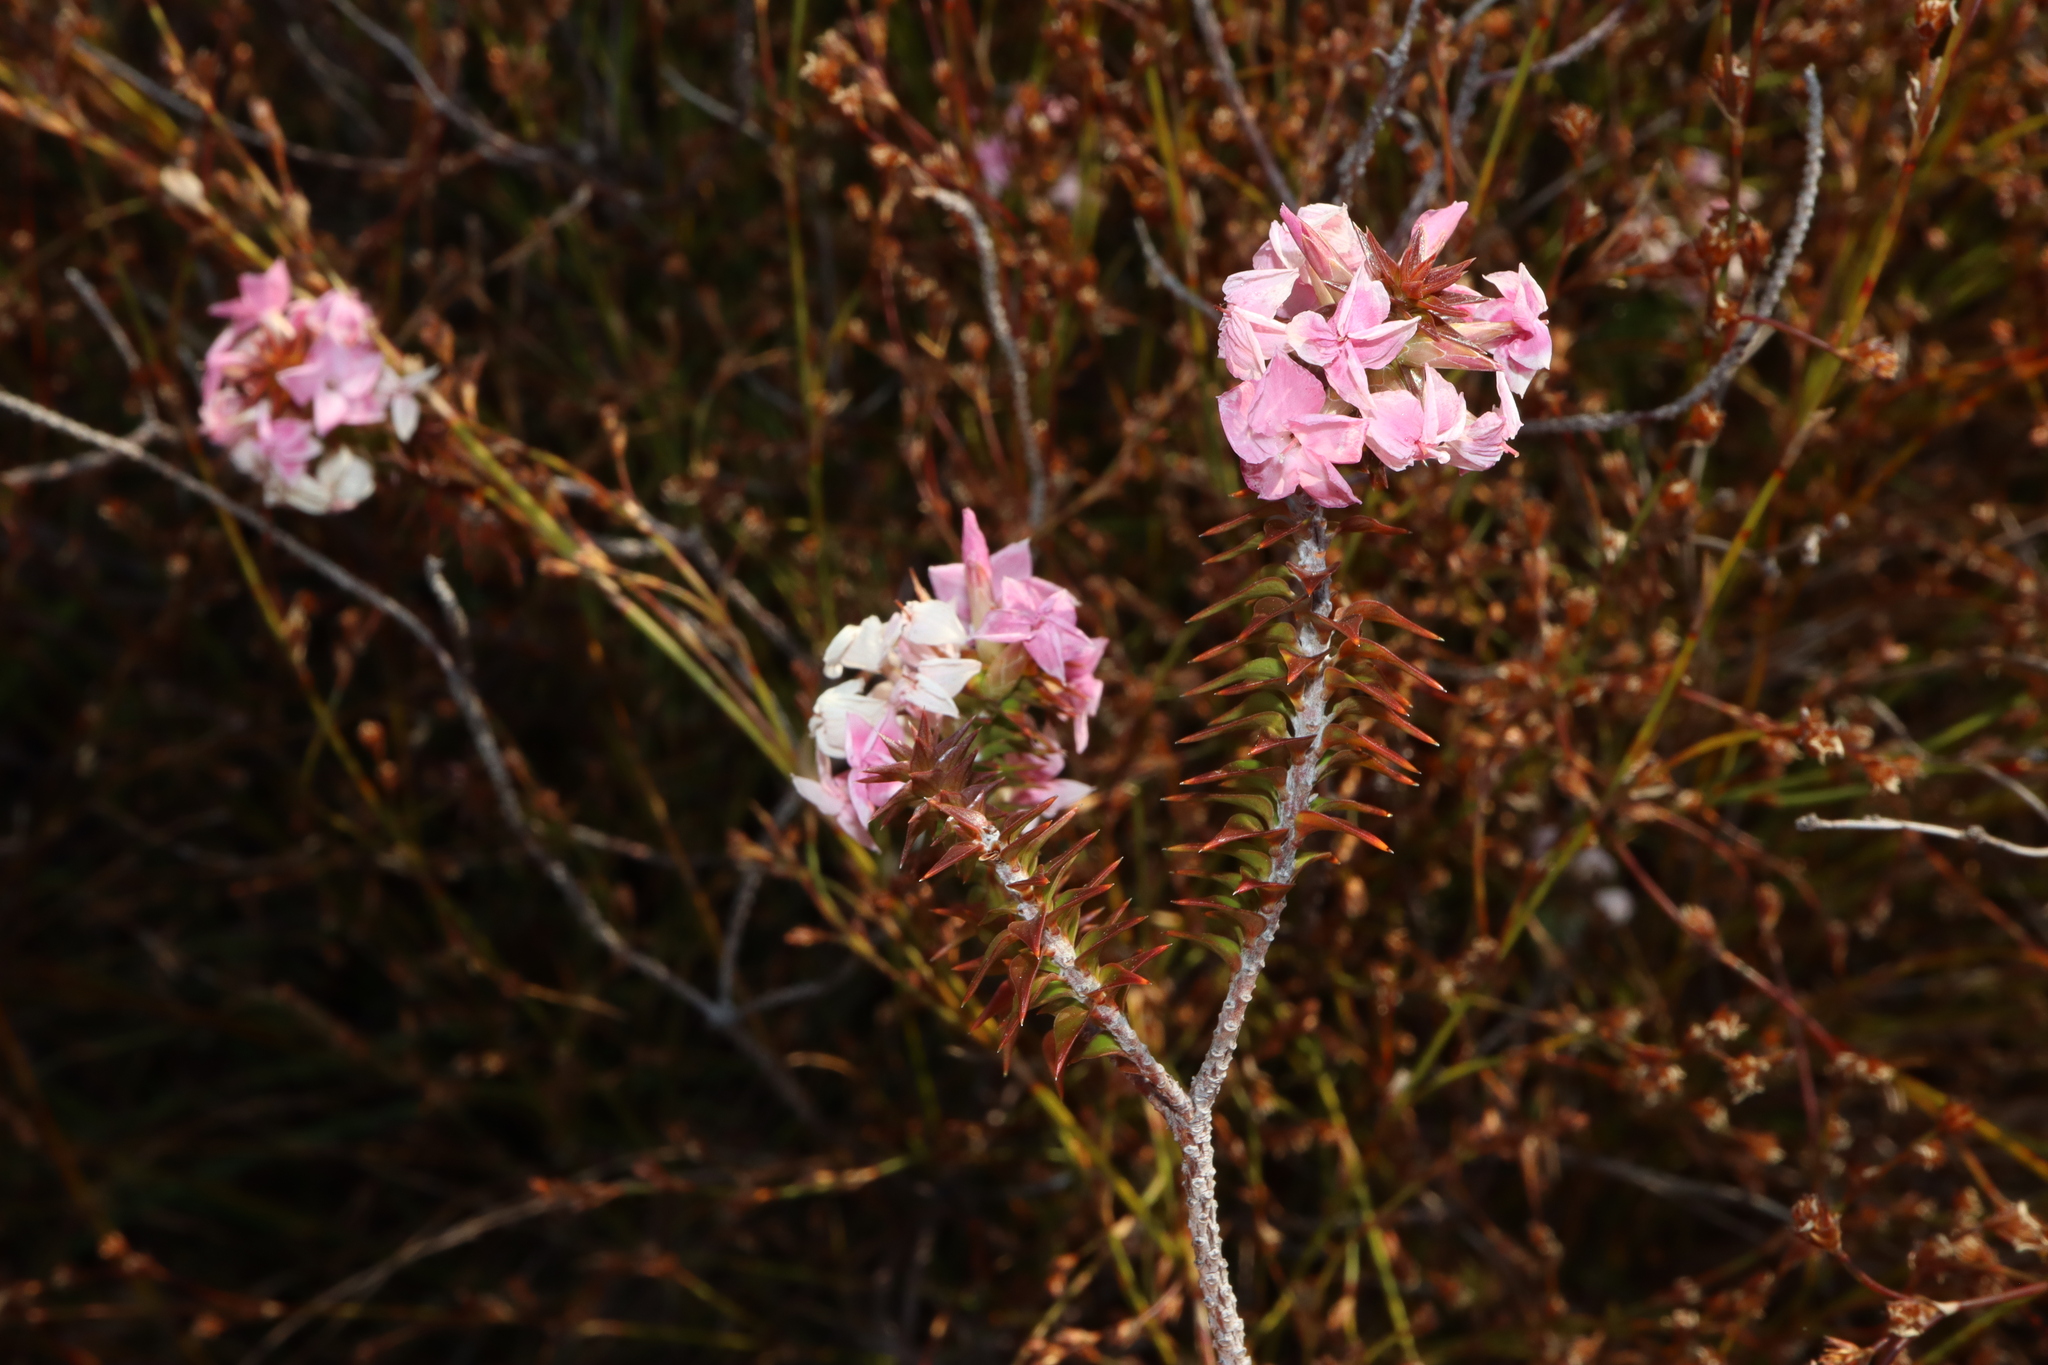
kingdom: Plantae
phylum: Tracheophyta
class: Magnoliopsida
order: Ericales
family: Ericaceae
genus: Woollsia
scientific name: Woollsia pungens
